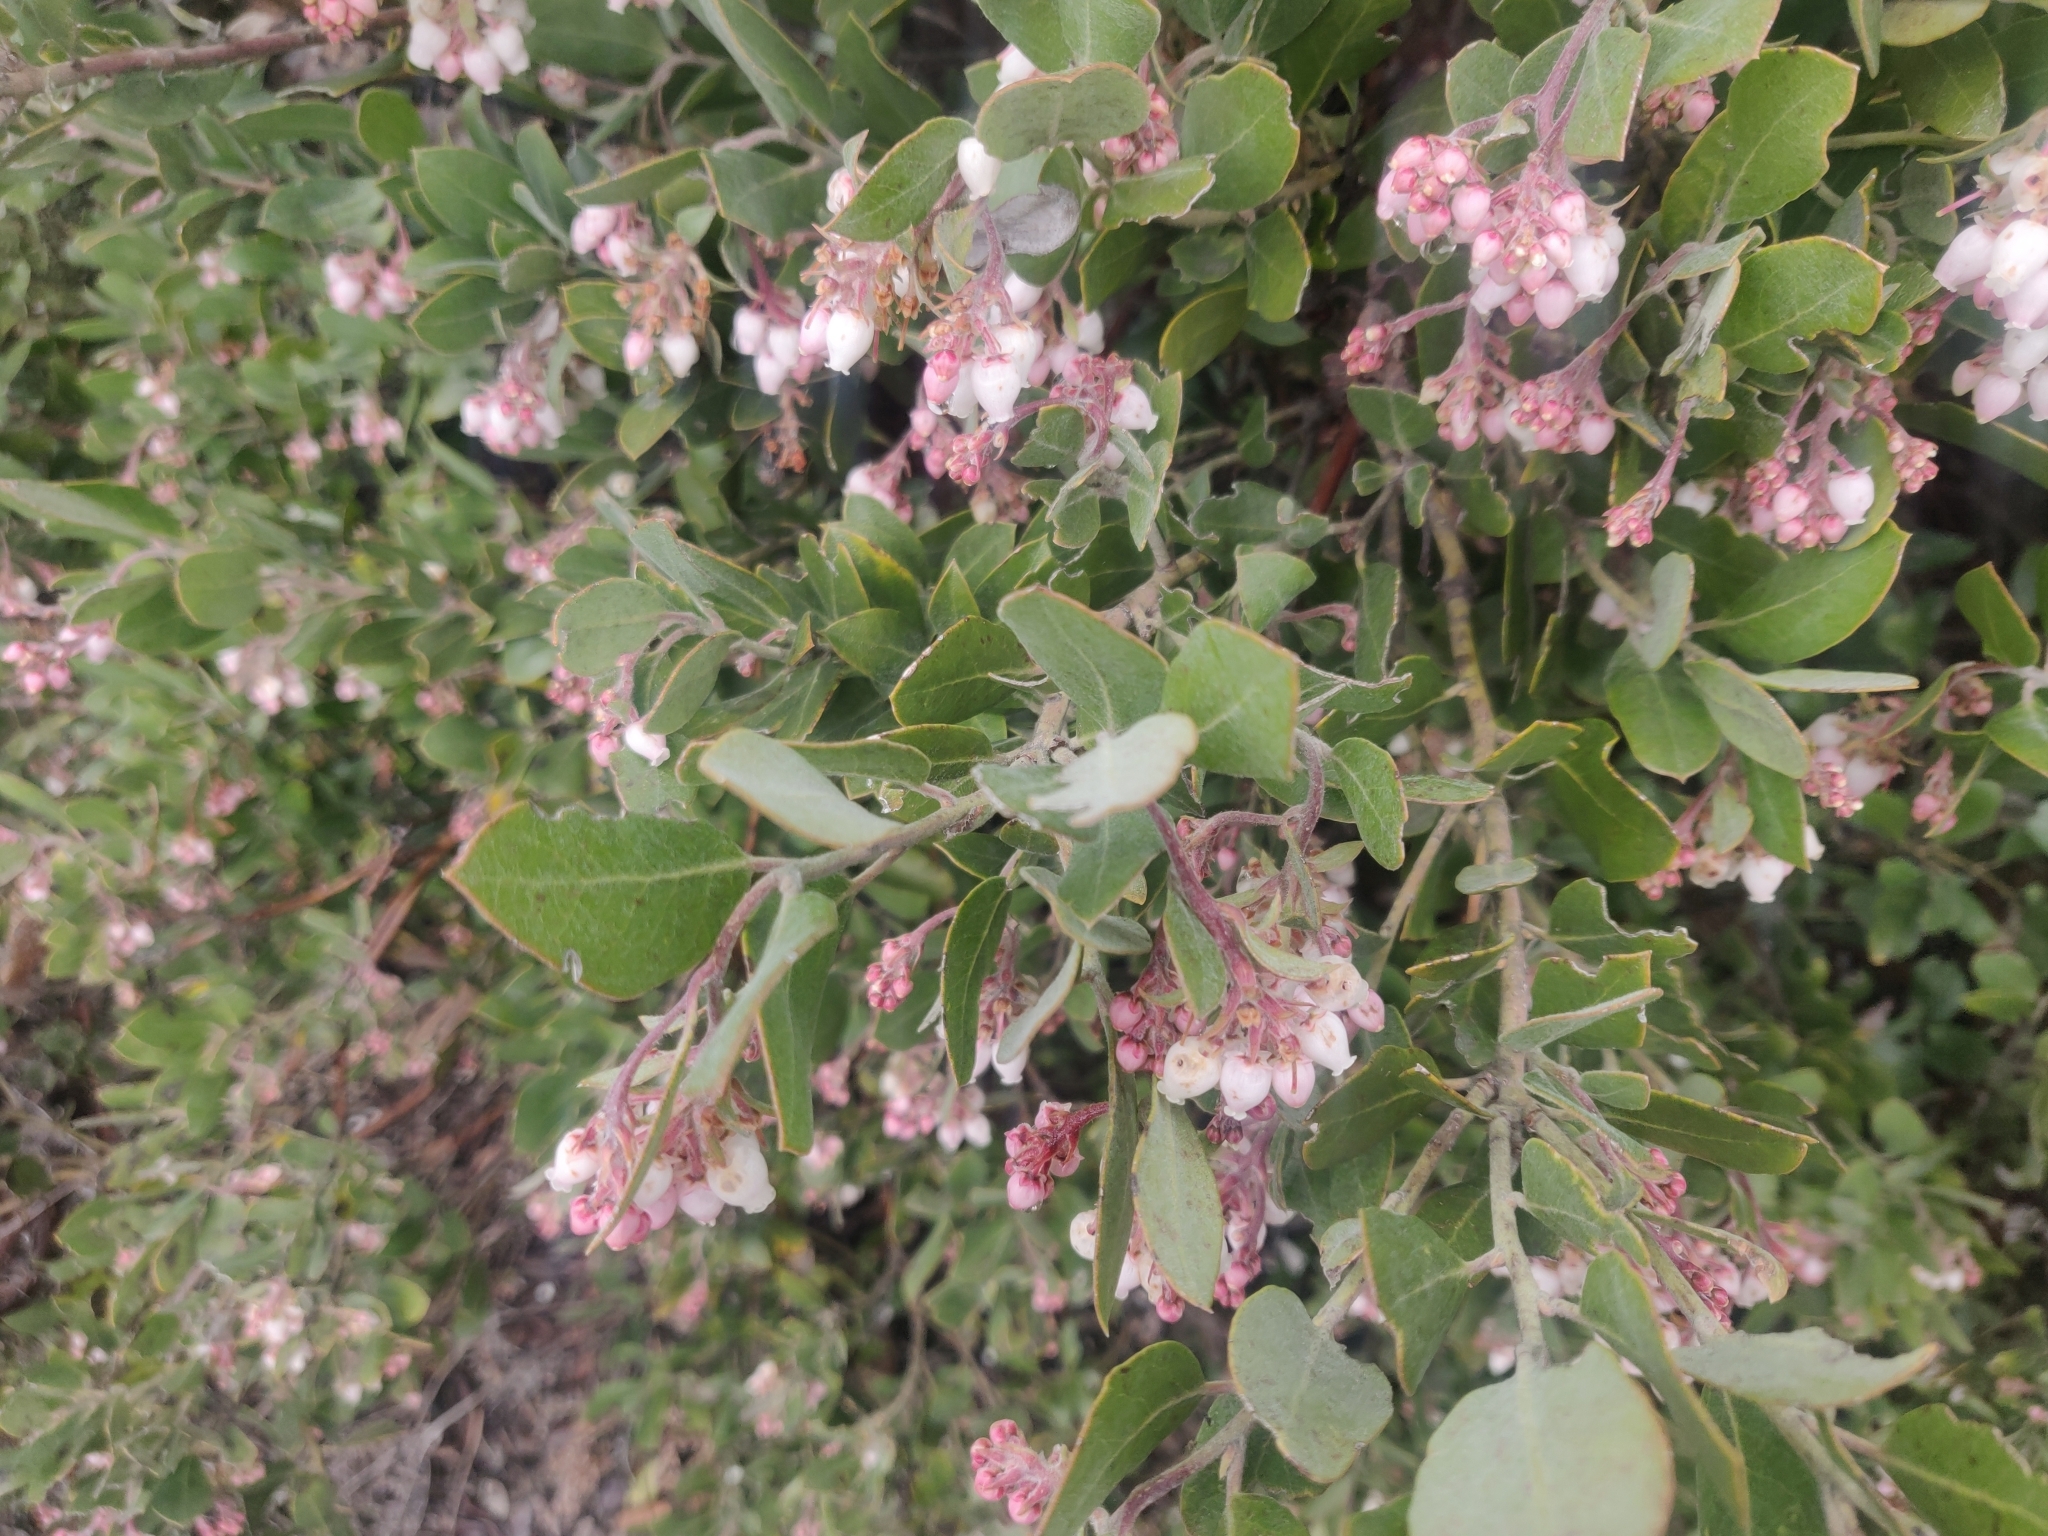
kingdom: Plantae
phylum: Tracheophyta
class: Magnoliopsida
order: Ericales
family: Ericaceae
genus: Arctostaphylos
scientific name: Arctostaphylos crustacea
